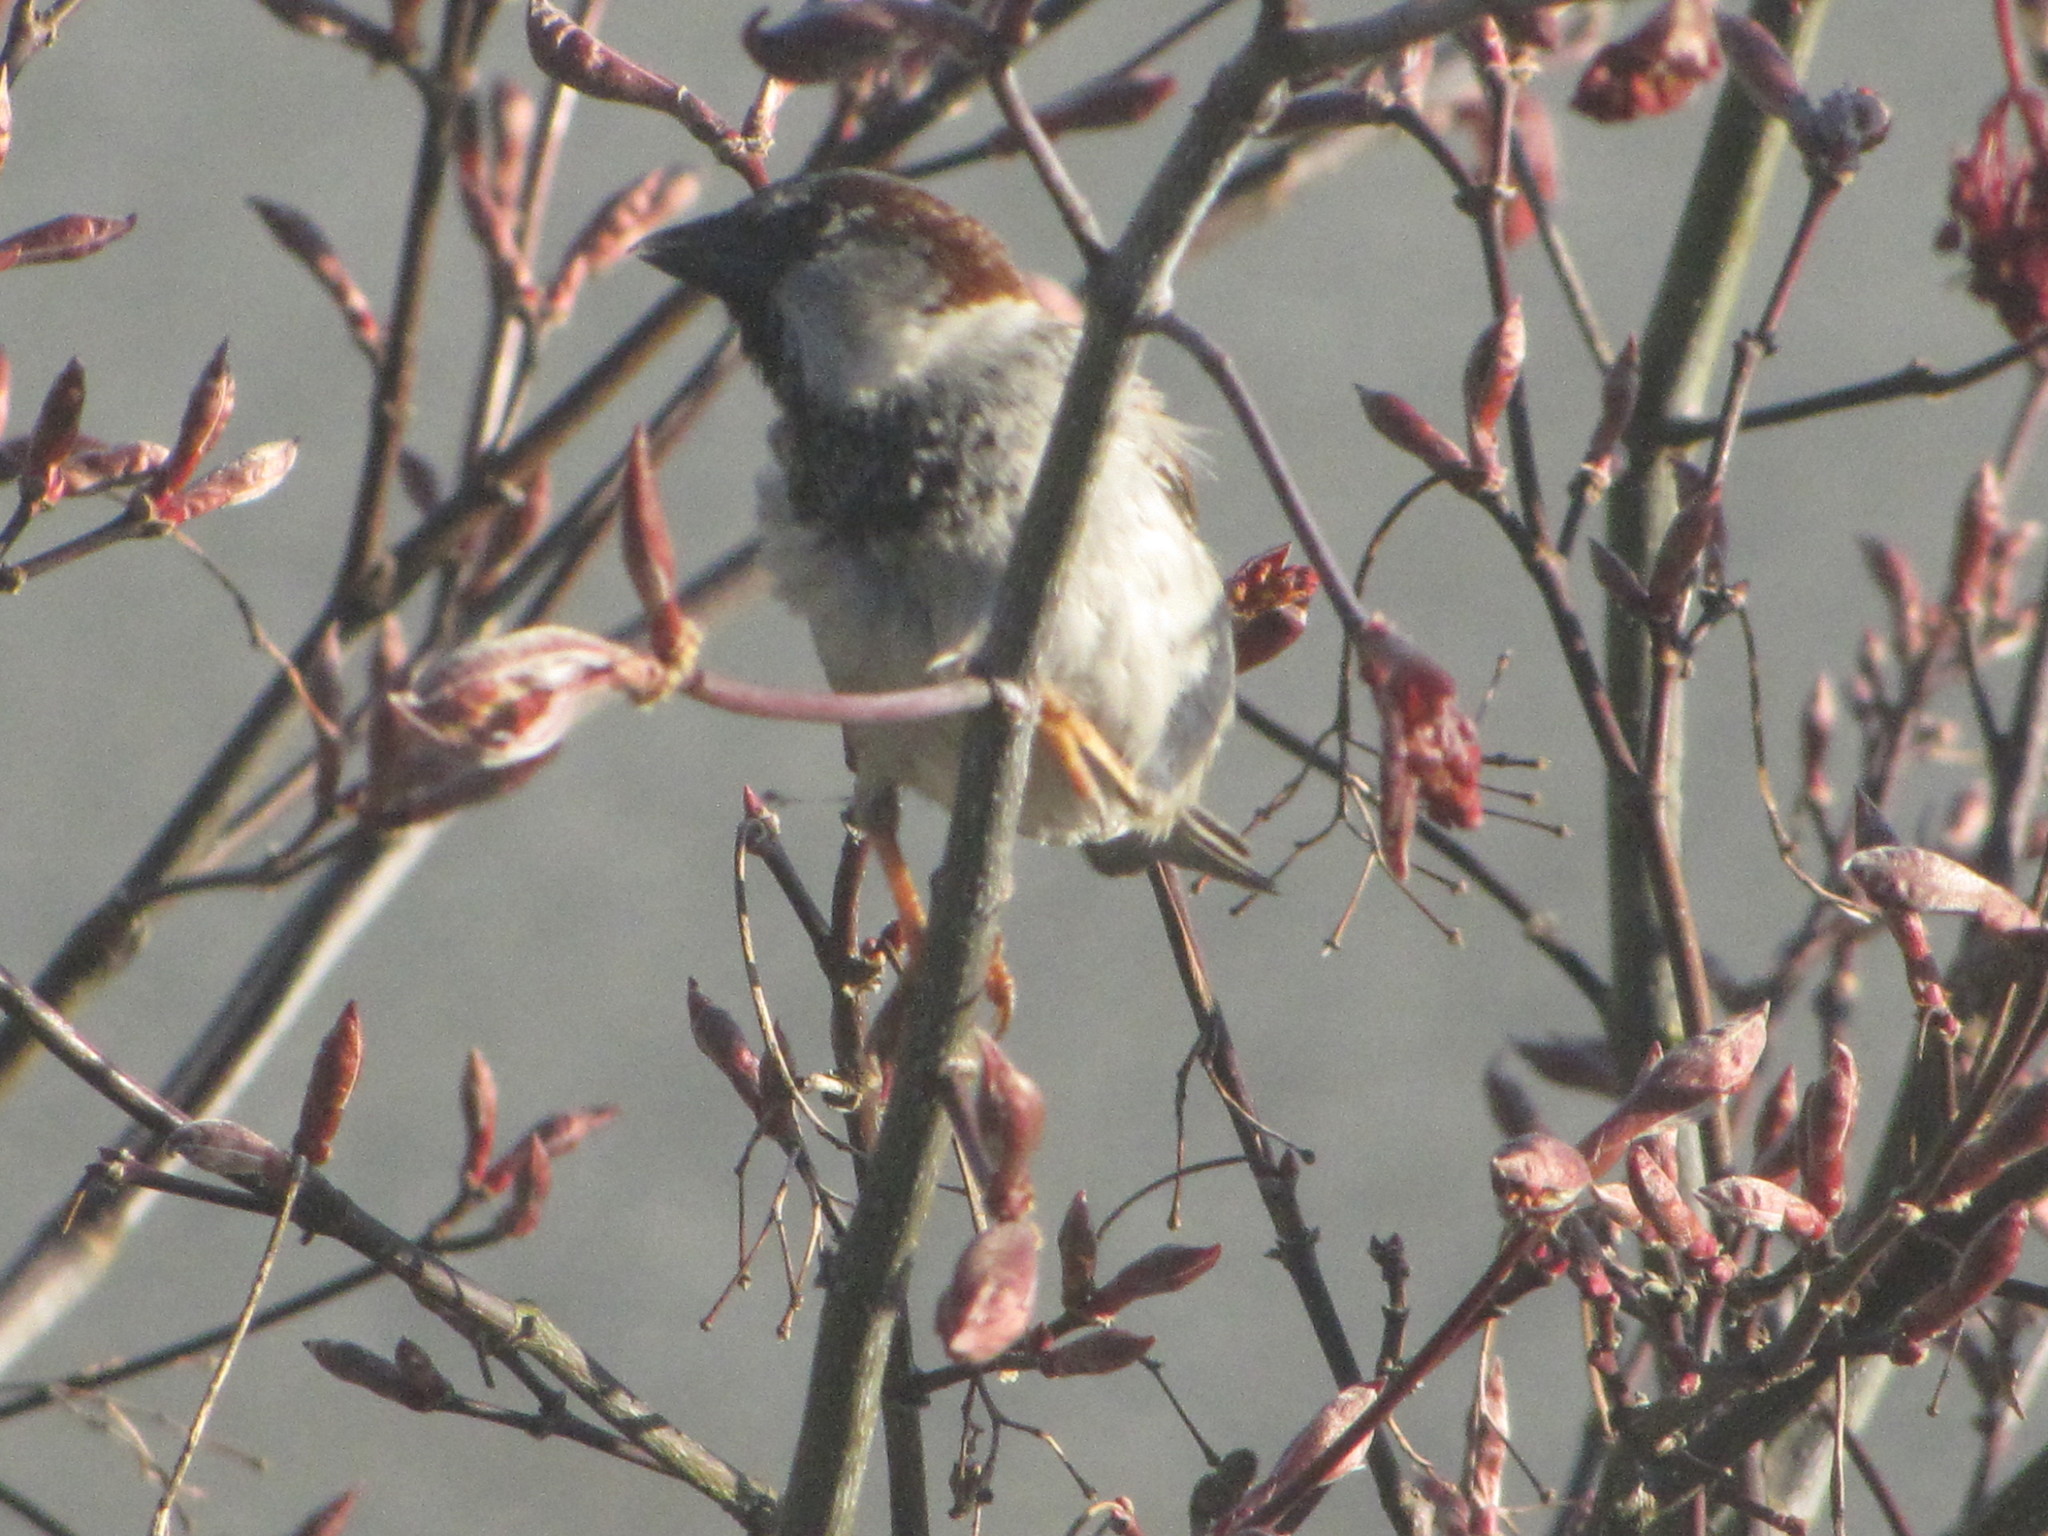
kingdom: Animalia
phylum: Chordata
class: Aves
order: Passeriformes
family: Passeridae
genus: Passer
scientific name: Passer domesticus
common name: House sparrow
